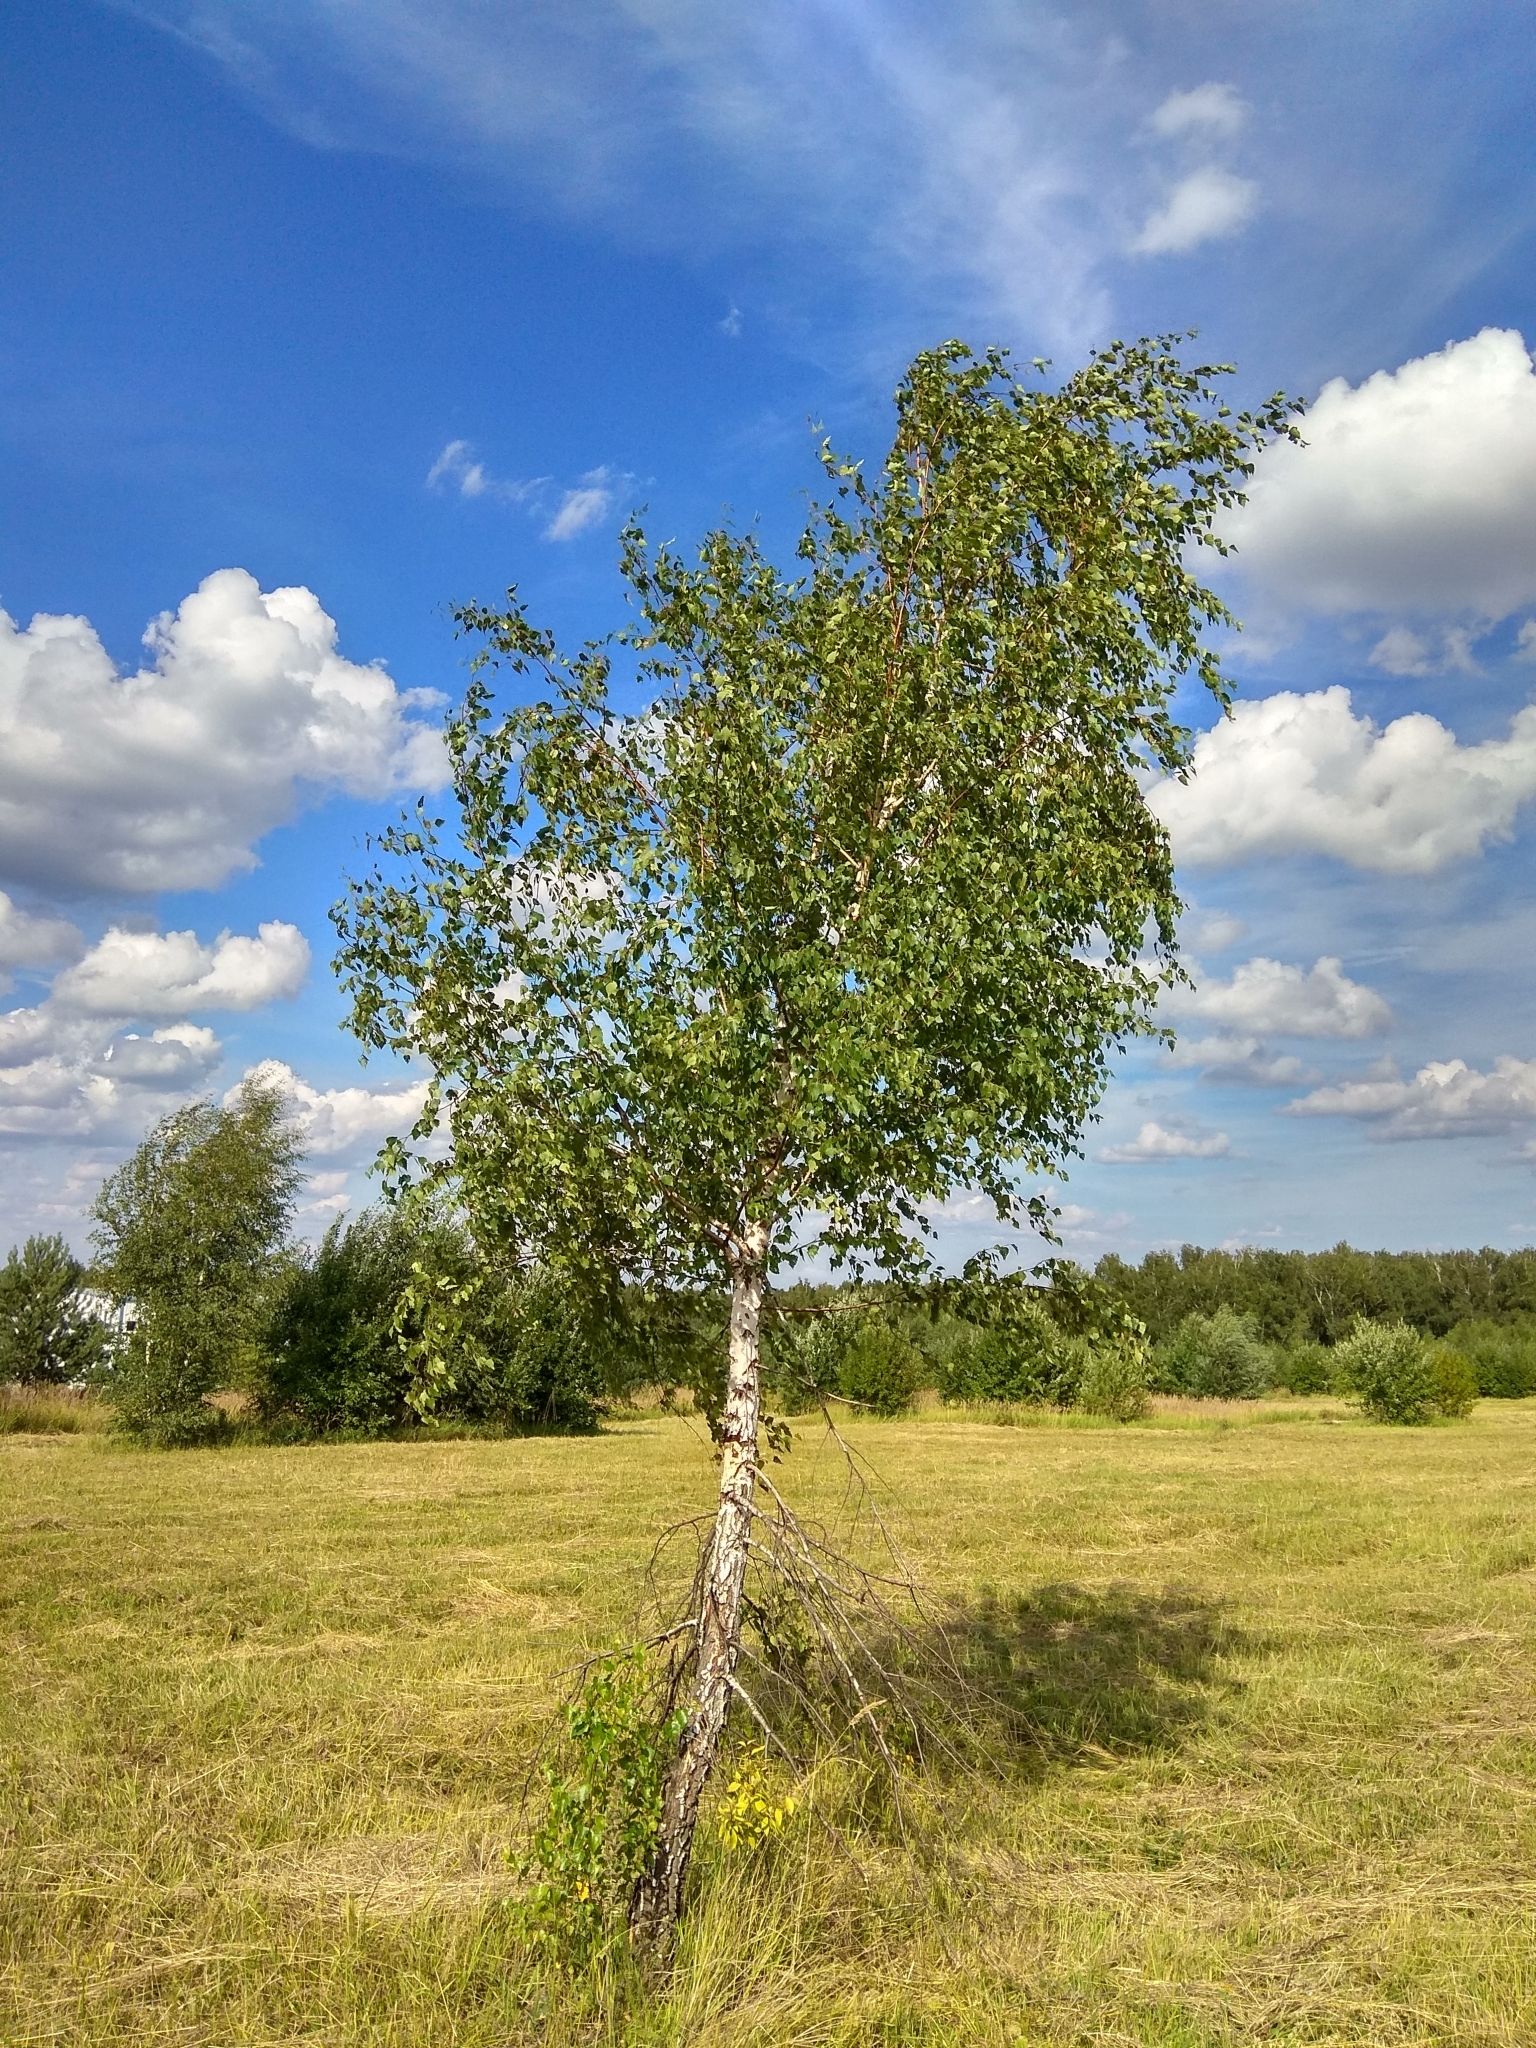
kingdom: Plantae
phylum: Tracheophyta
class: Magnoliopsida
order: Fagales
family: Betulaceae
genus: Betula
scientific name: Betula pendula
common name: Silver birch
